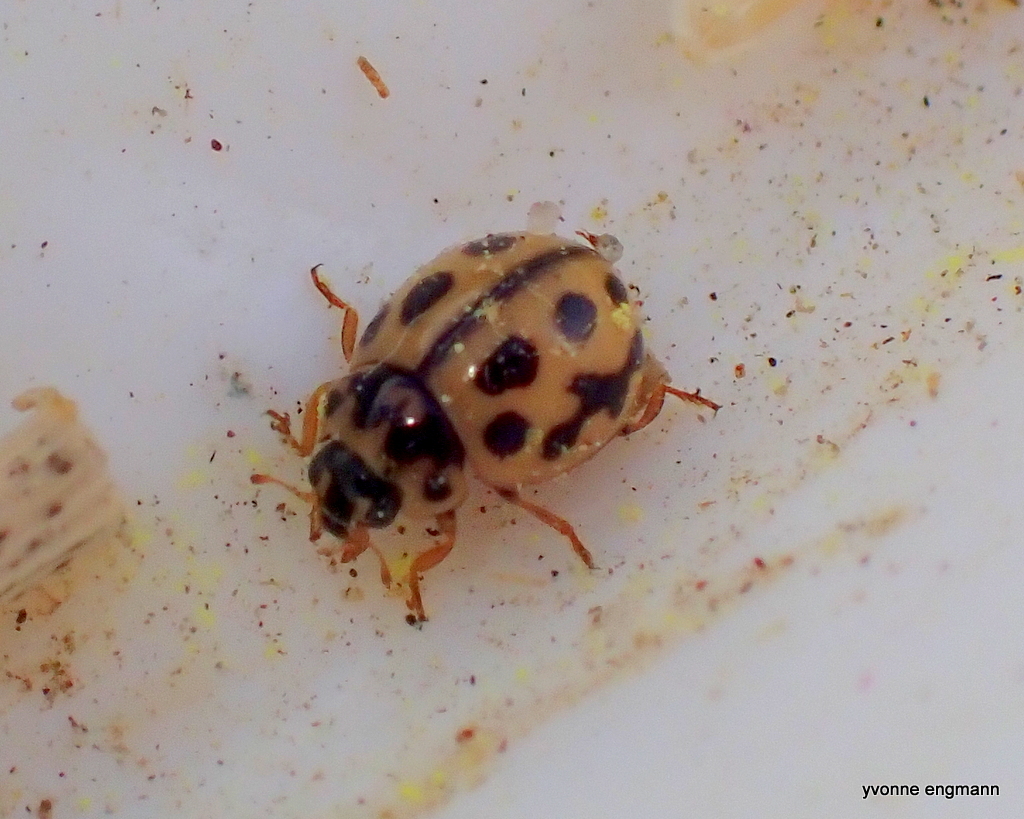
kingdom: Animalia
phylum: Arthropoda
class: Insecta
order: Coleoptera
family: Coccinellidae
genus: Tytthaspis
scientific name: Tytthaspis sedecimpunctata
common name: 16-spot ladybird
